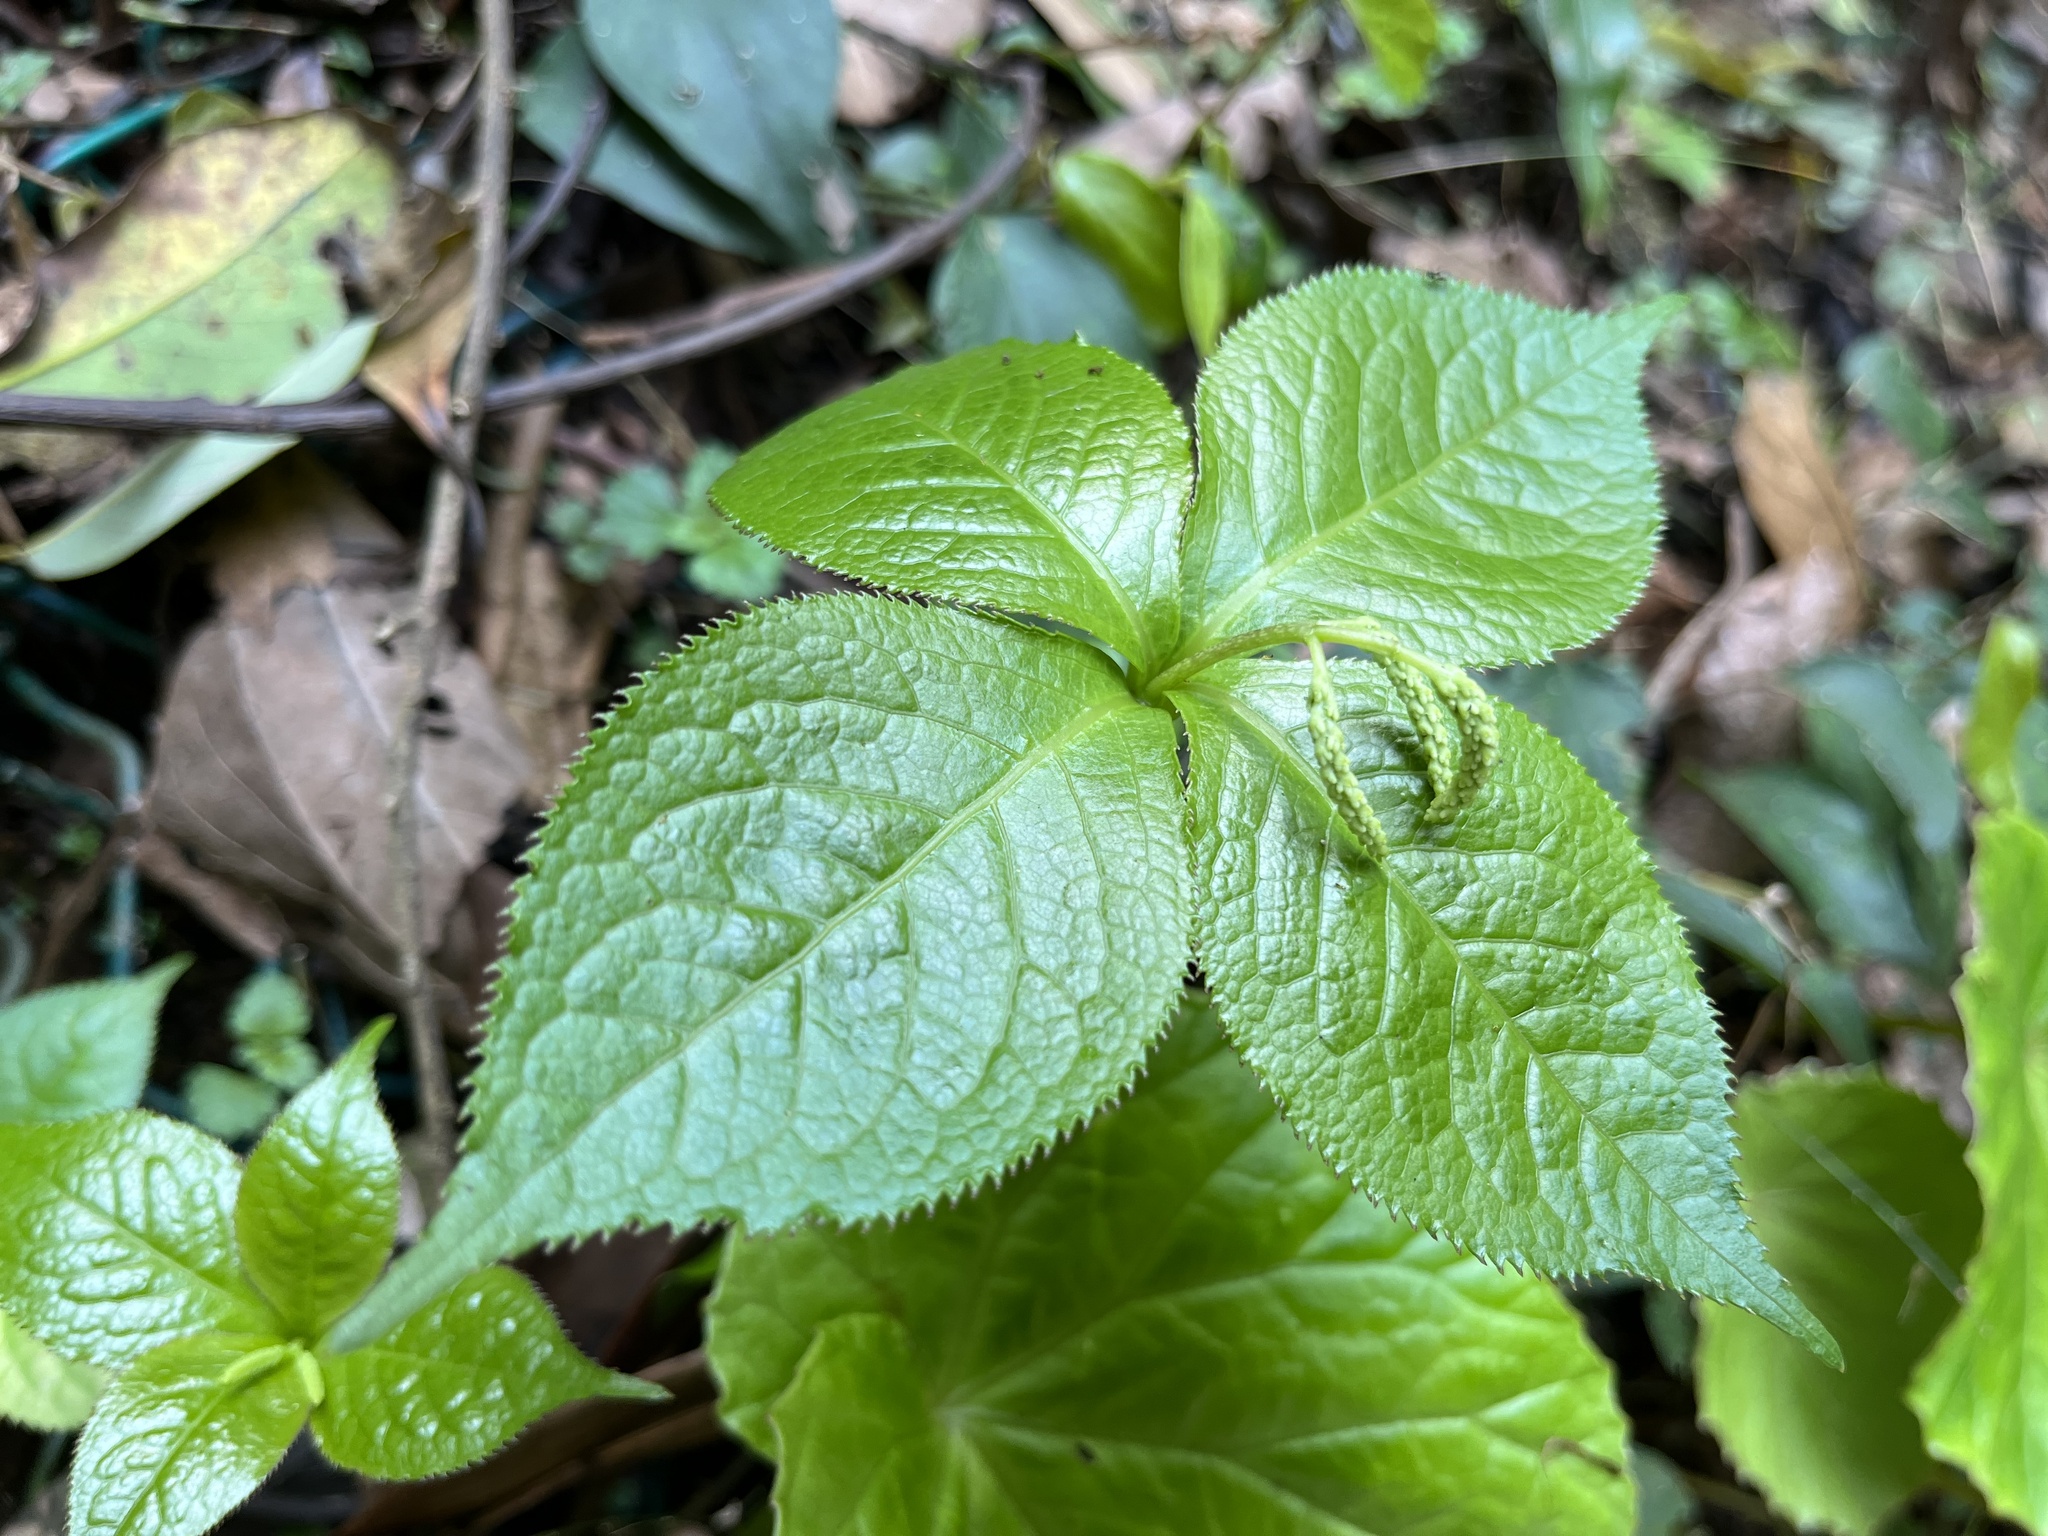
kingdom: Plantae
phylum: Tracheophyta
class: Magnoliopsida
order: Chloranthales
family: Chloranthaceae
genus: Chloranthus
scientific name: Chloranthus oldhamii
